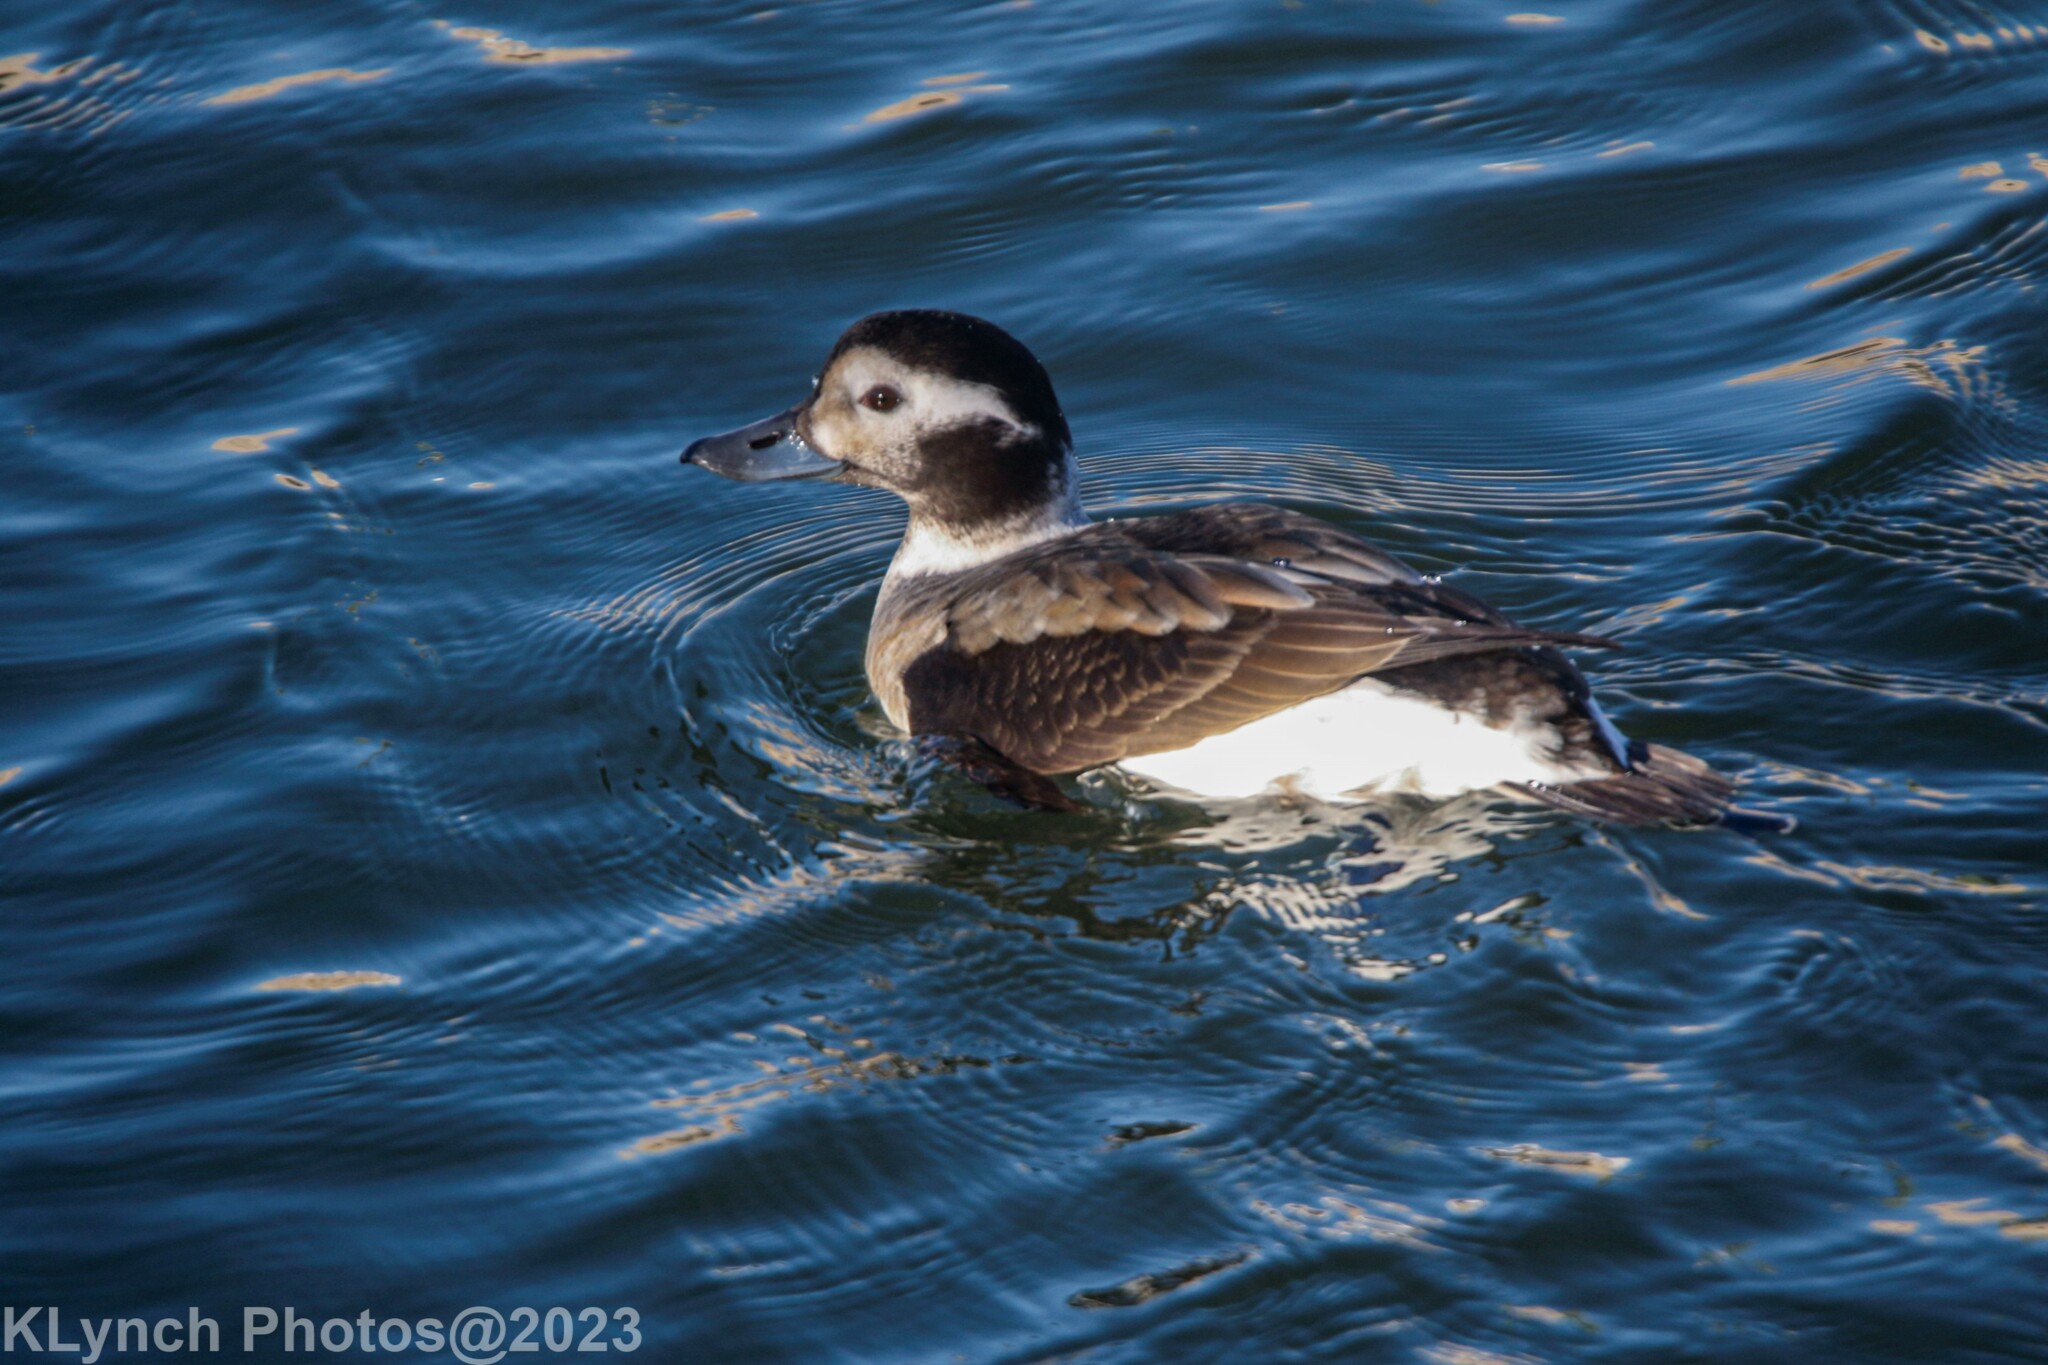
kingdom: Animalia
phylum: Chordata
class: Aves
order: Anseriformes
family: Anatidae
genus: Clangula
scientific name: Clangula hyemalis
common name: Long-tailed duck
